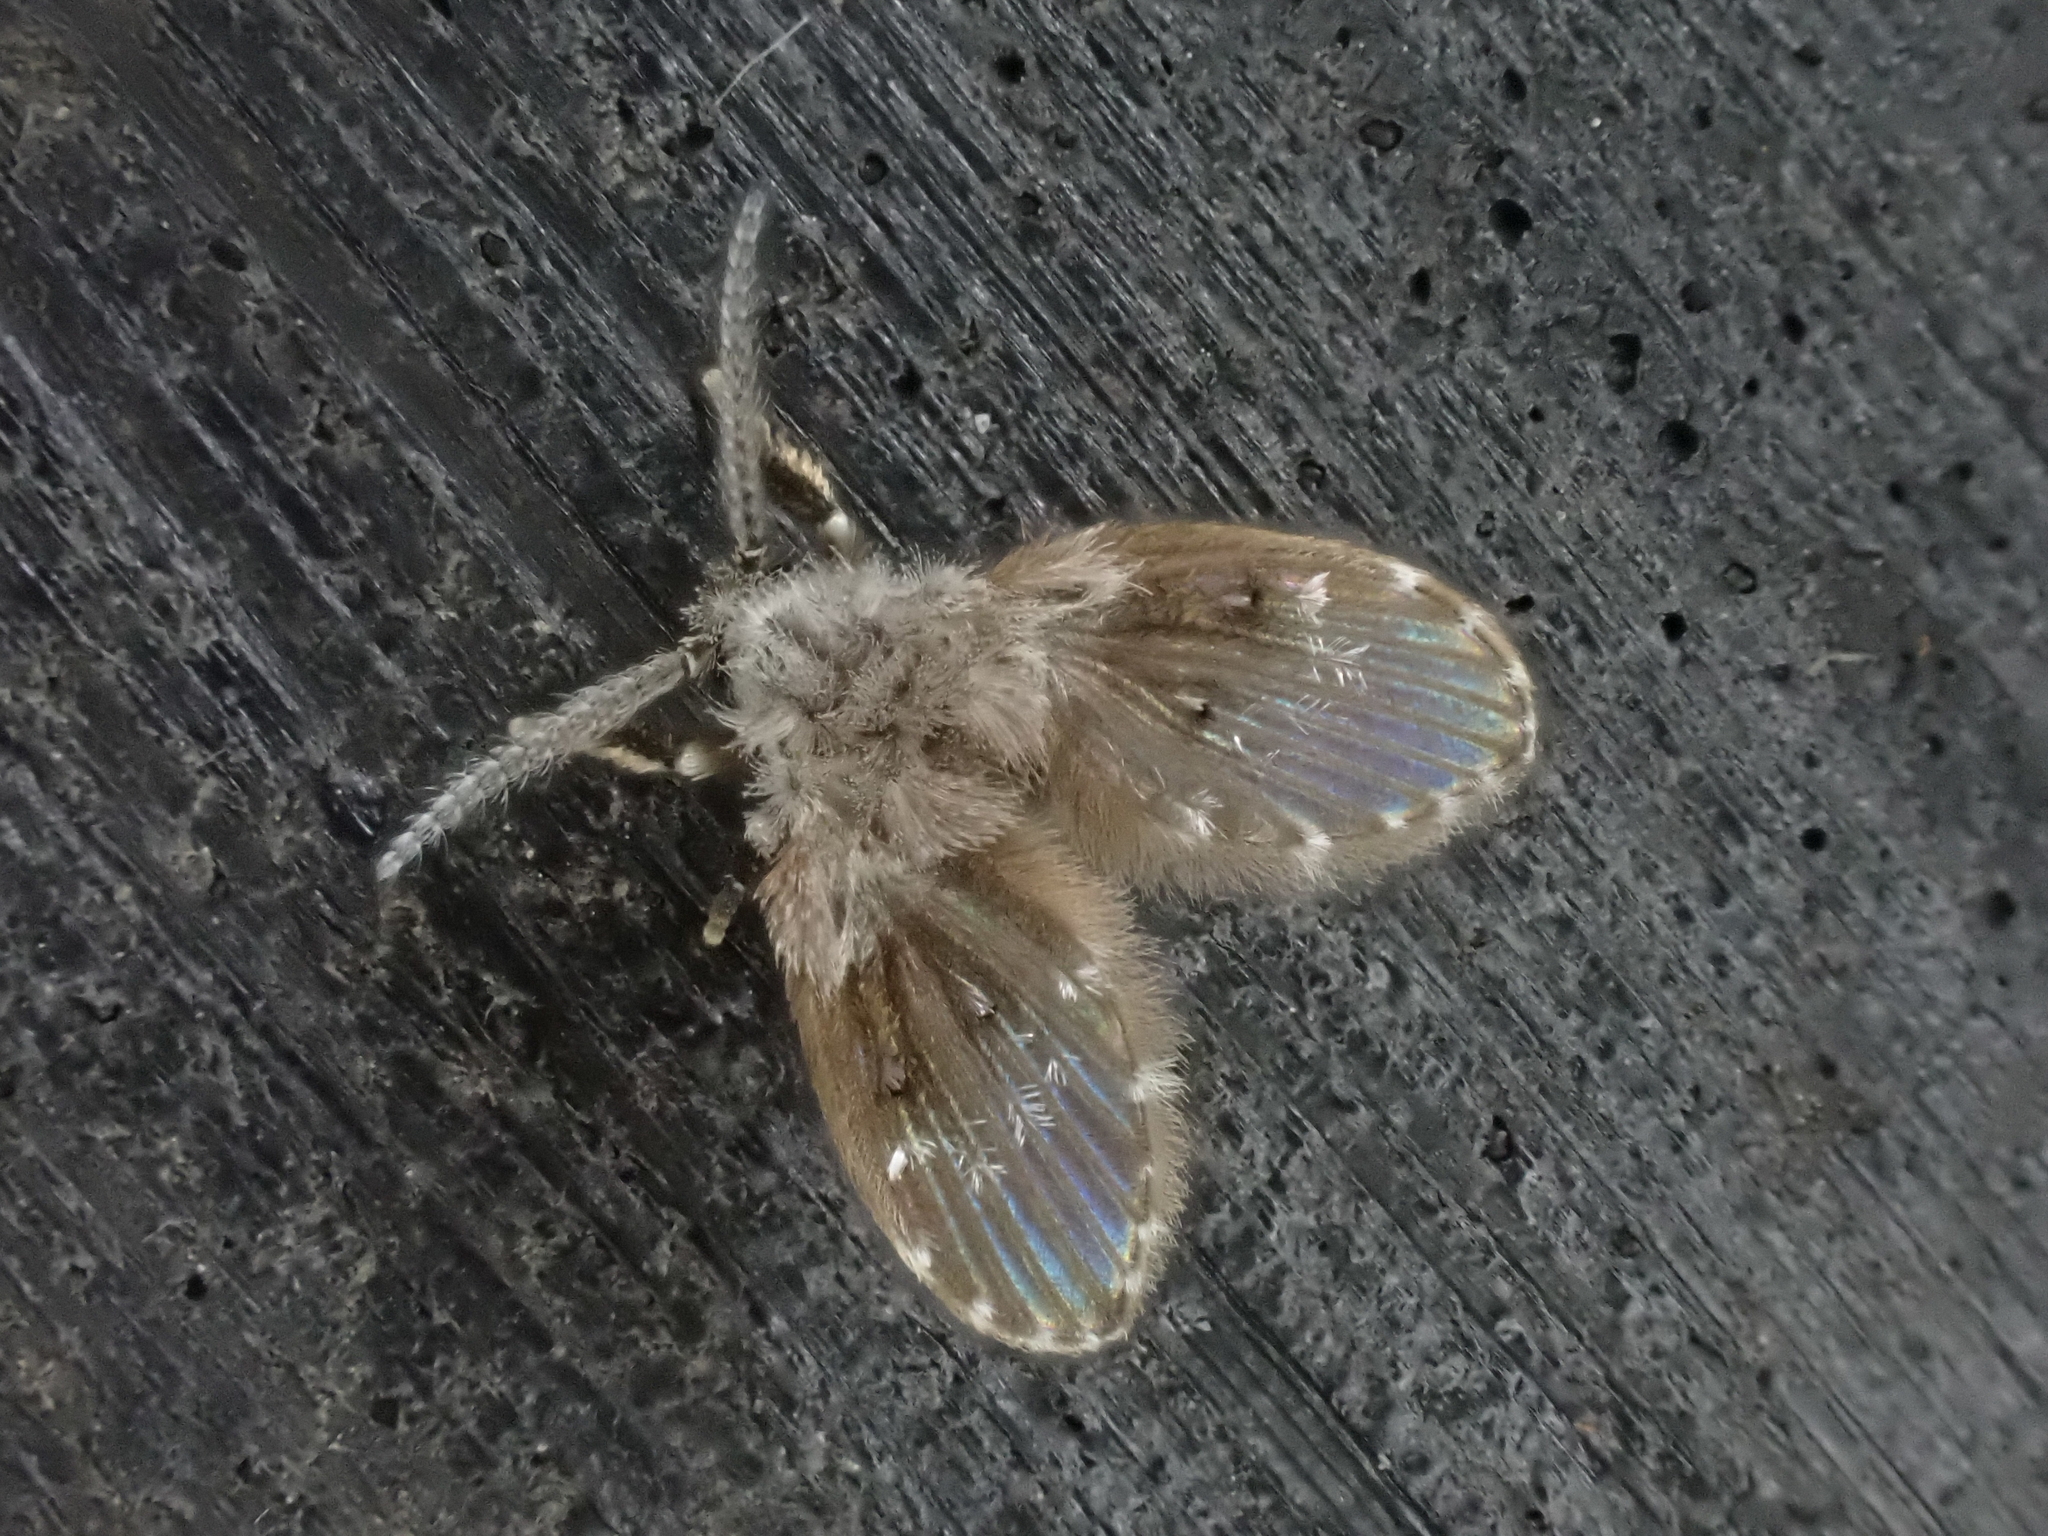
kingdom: Animalia
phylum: Arthropoda
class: Insecta
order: Diptera
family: Psychodidae
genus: Clogmia
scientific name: Clogmia albipunctatus
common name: White-spotted moth fly
